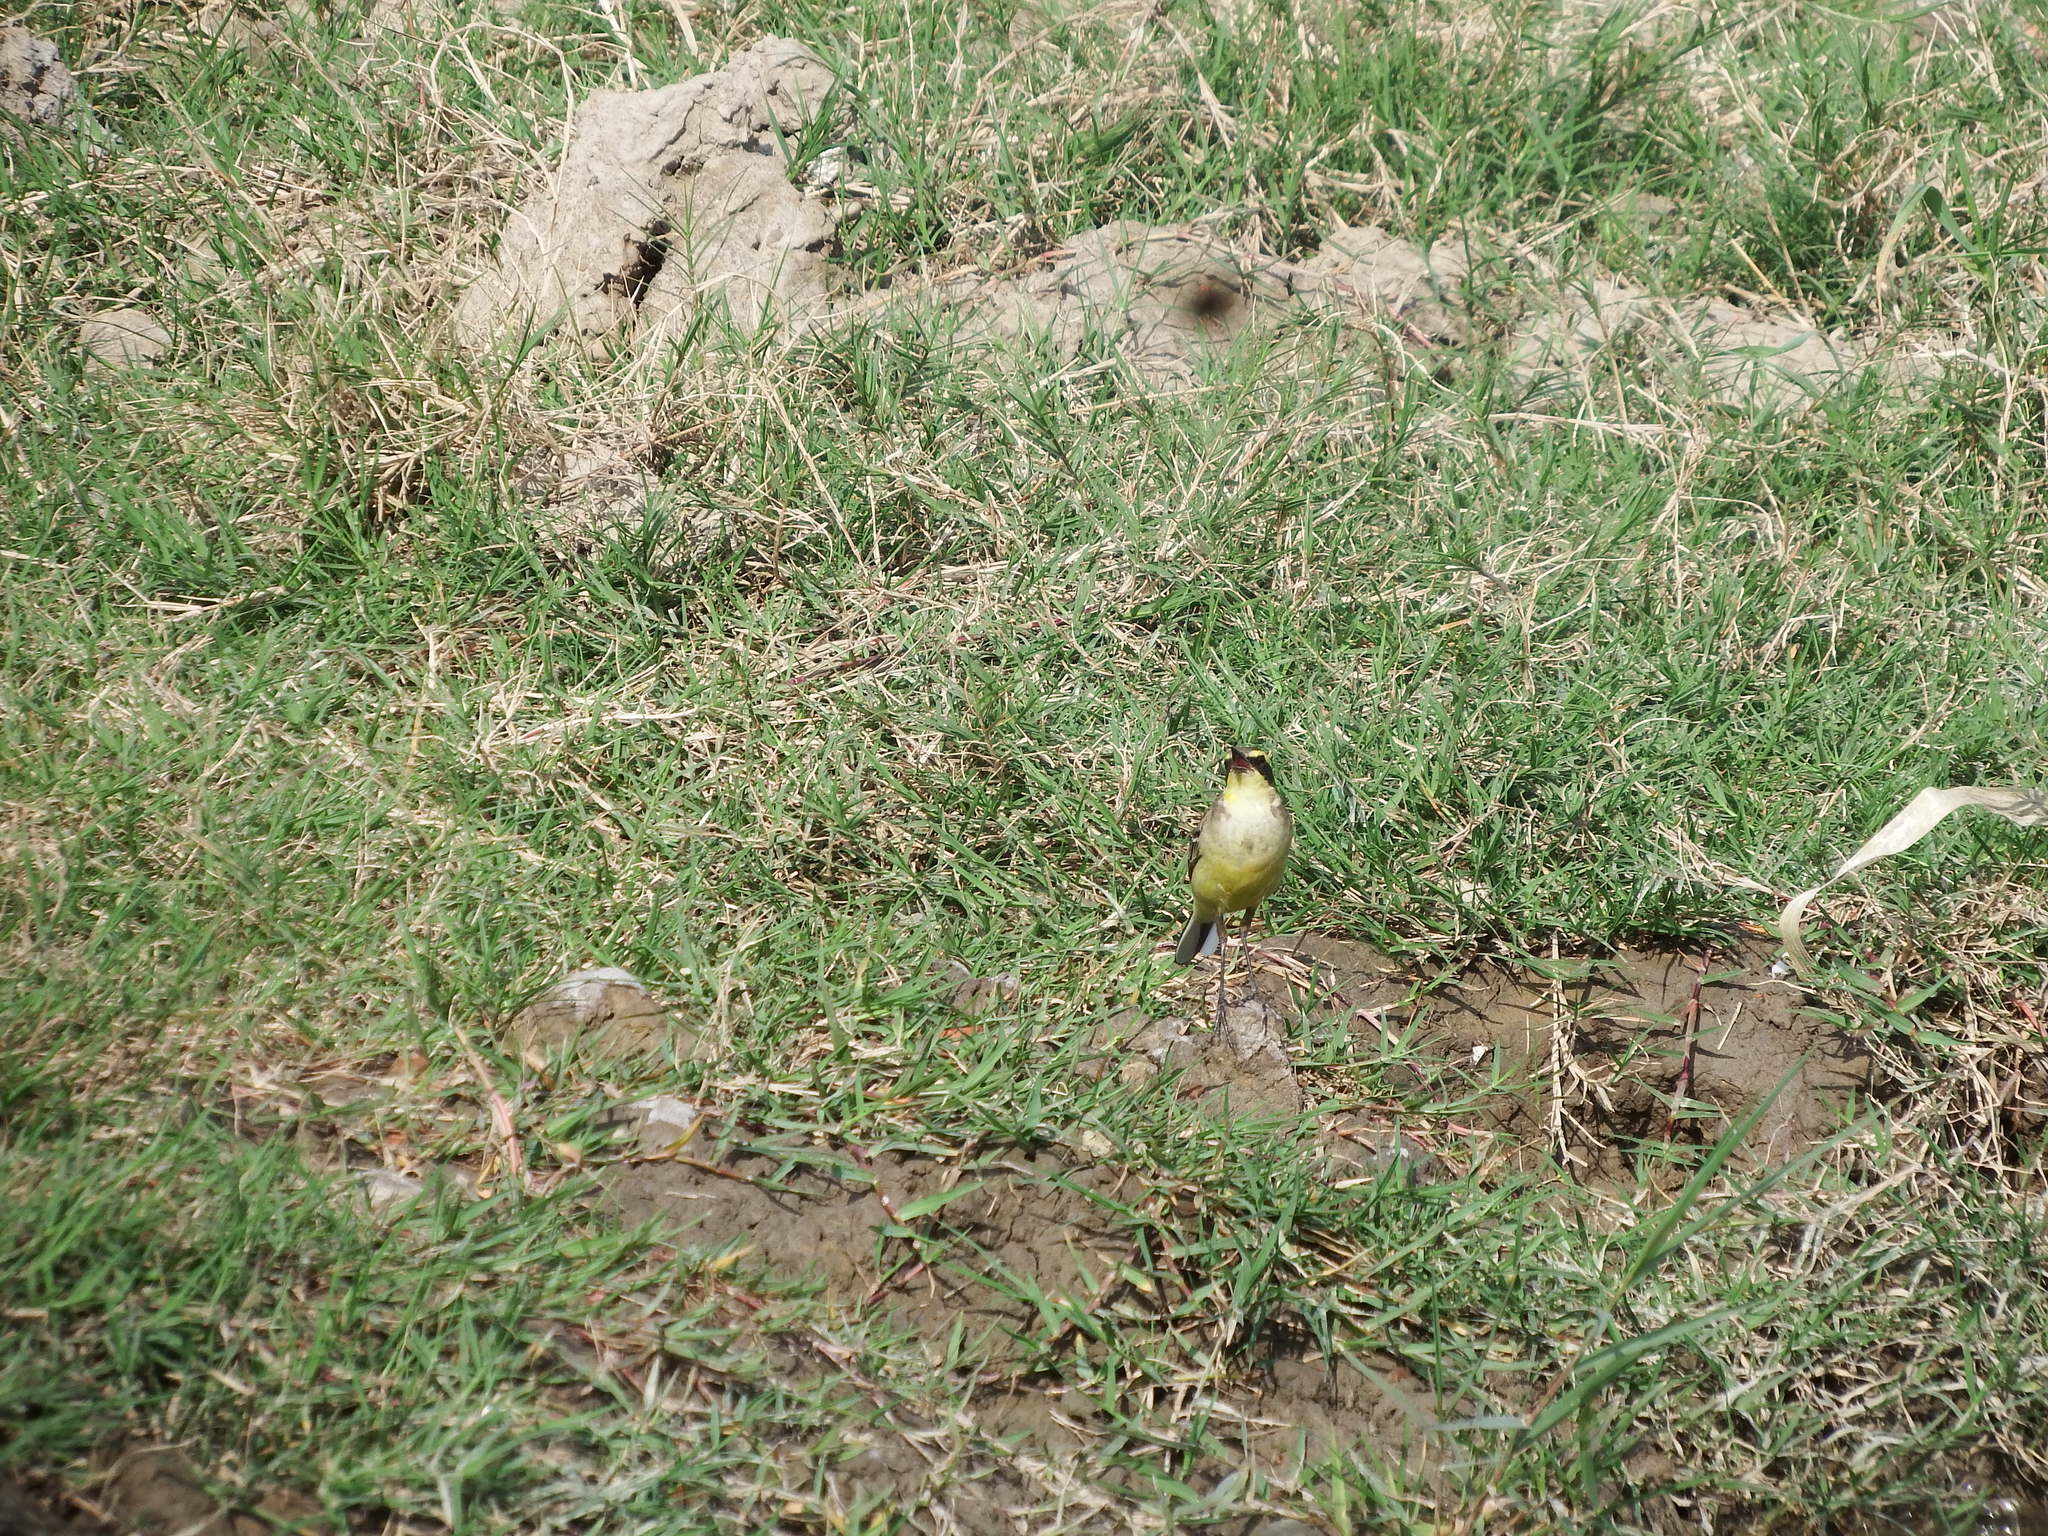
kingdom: Animalia
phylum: Chordata
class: Aves
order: Passeriformes
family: Motacillidae
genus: Motacilla
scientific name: Motacilla tschutschensis
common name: Eastern yellow wagtail
